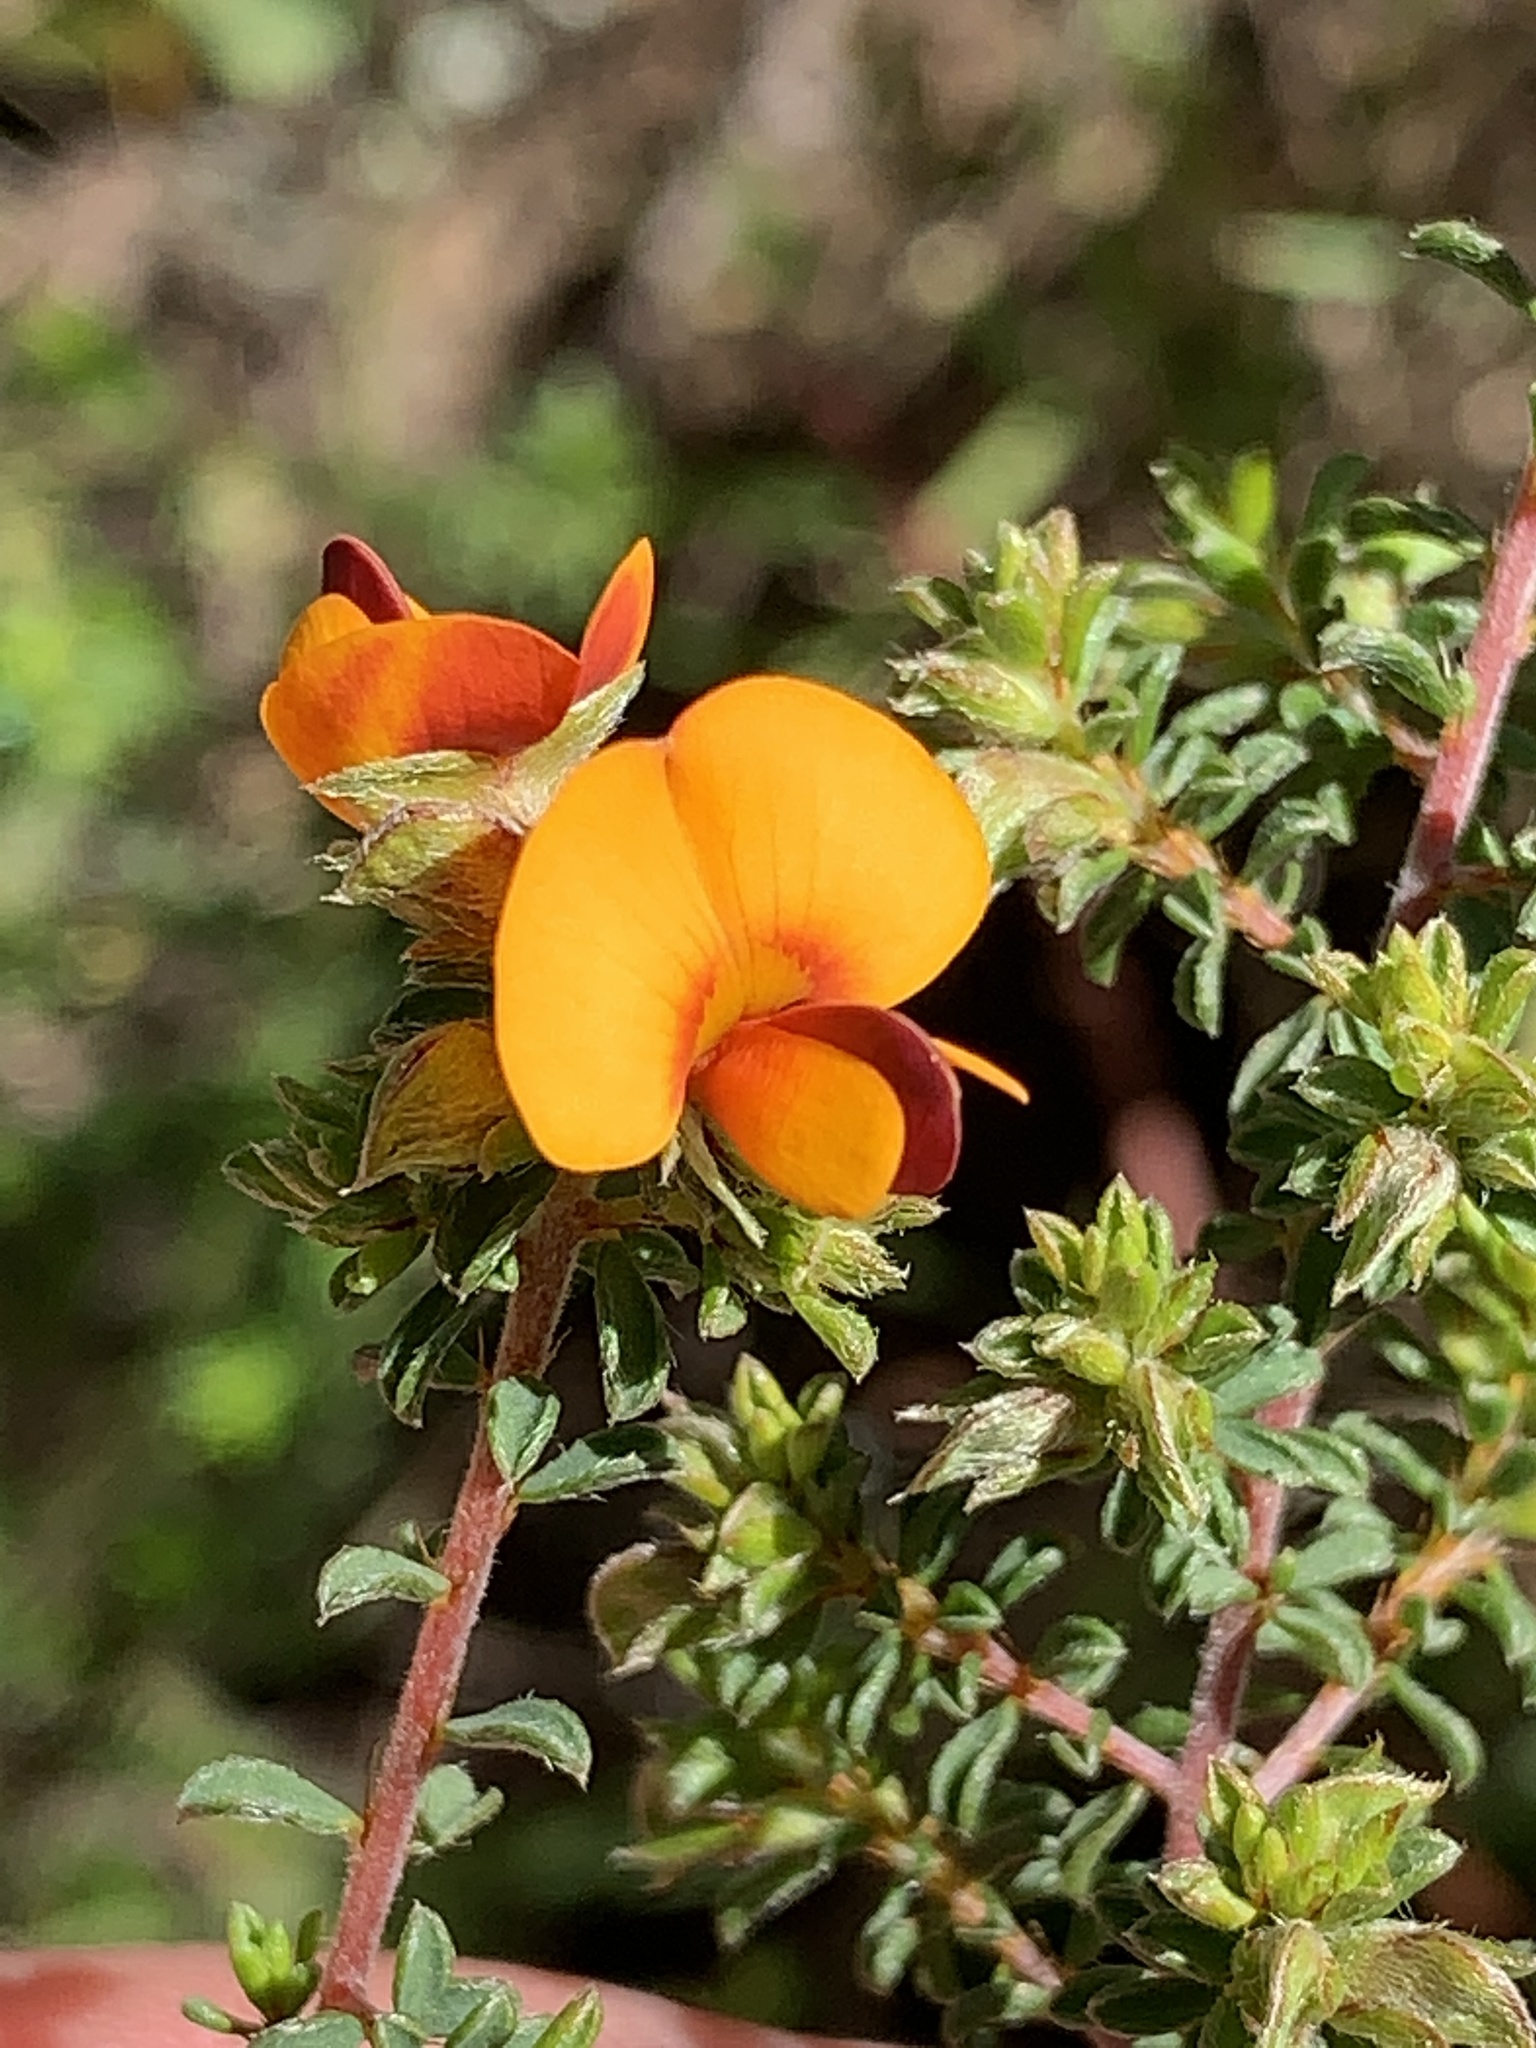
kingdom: Plantae
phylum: Tracheophyta
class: Magnoliopsida
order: Fabales
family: Fabaceae
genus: Pultenaea
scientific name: Pultenaea foliolosa
